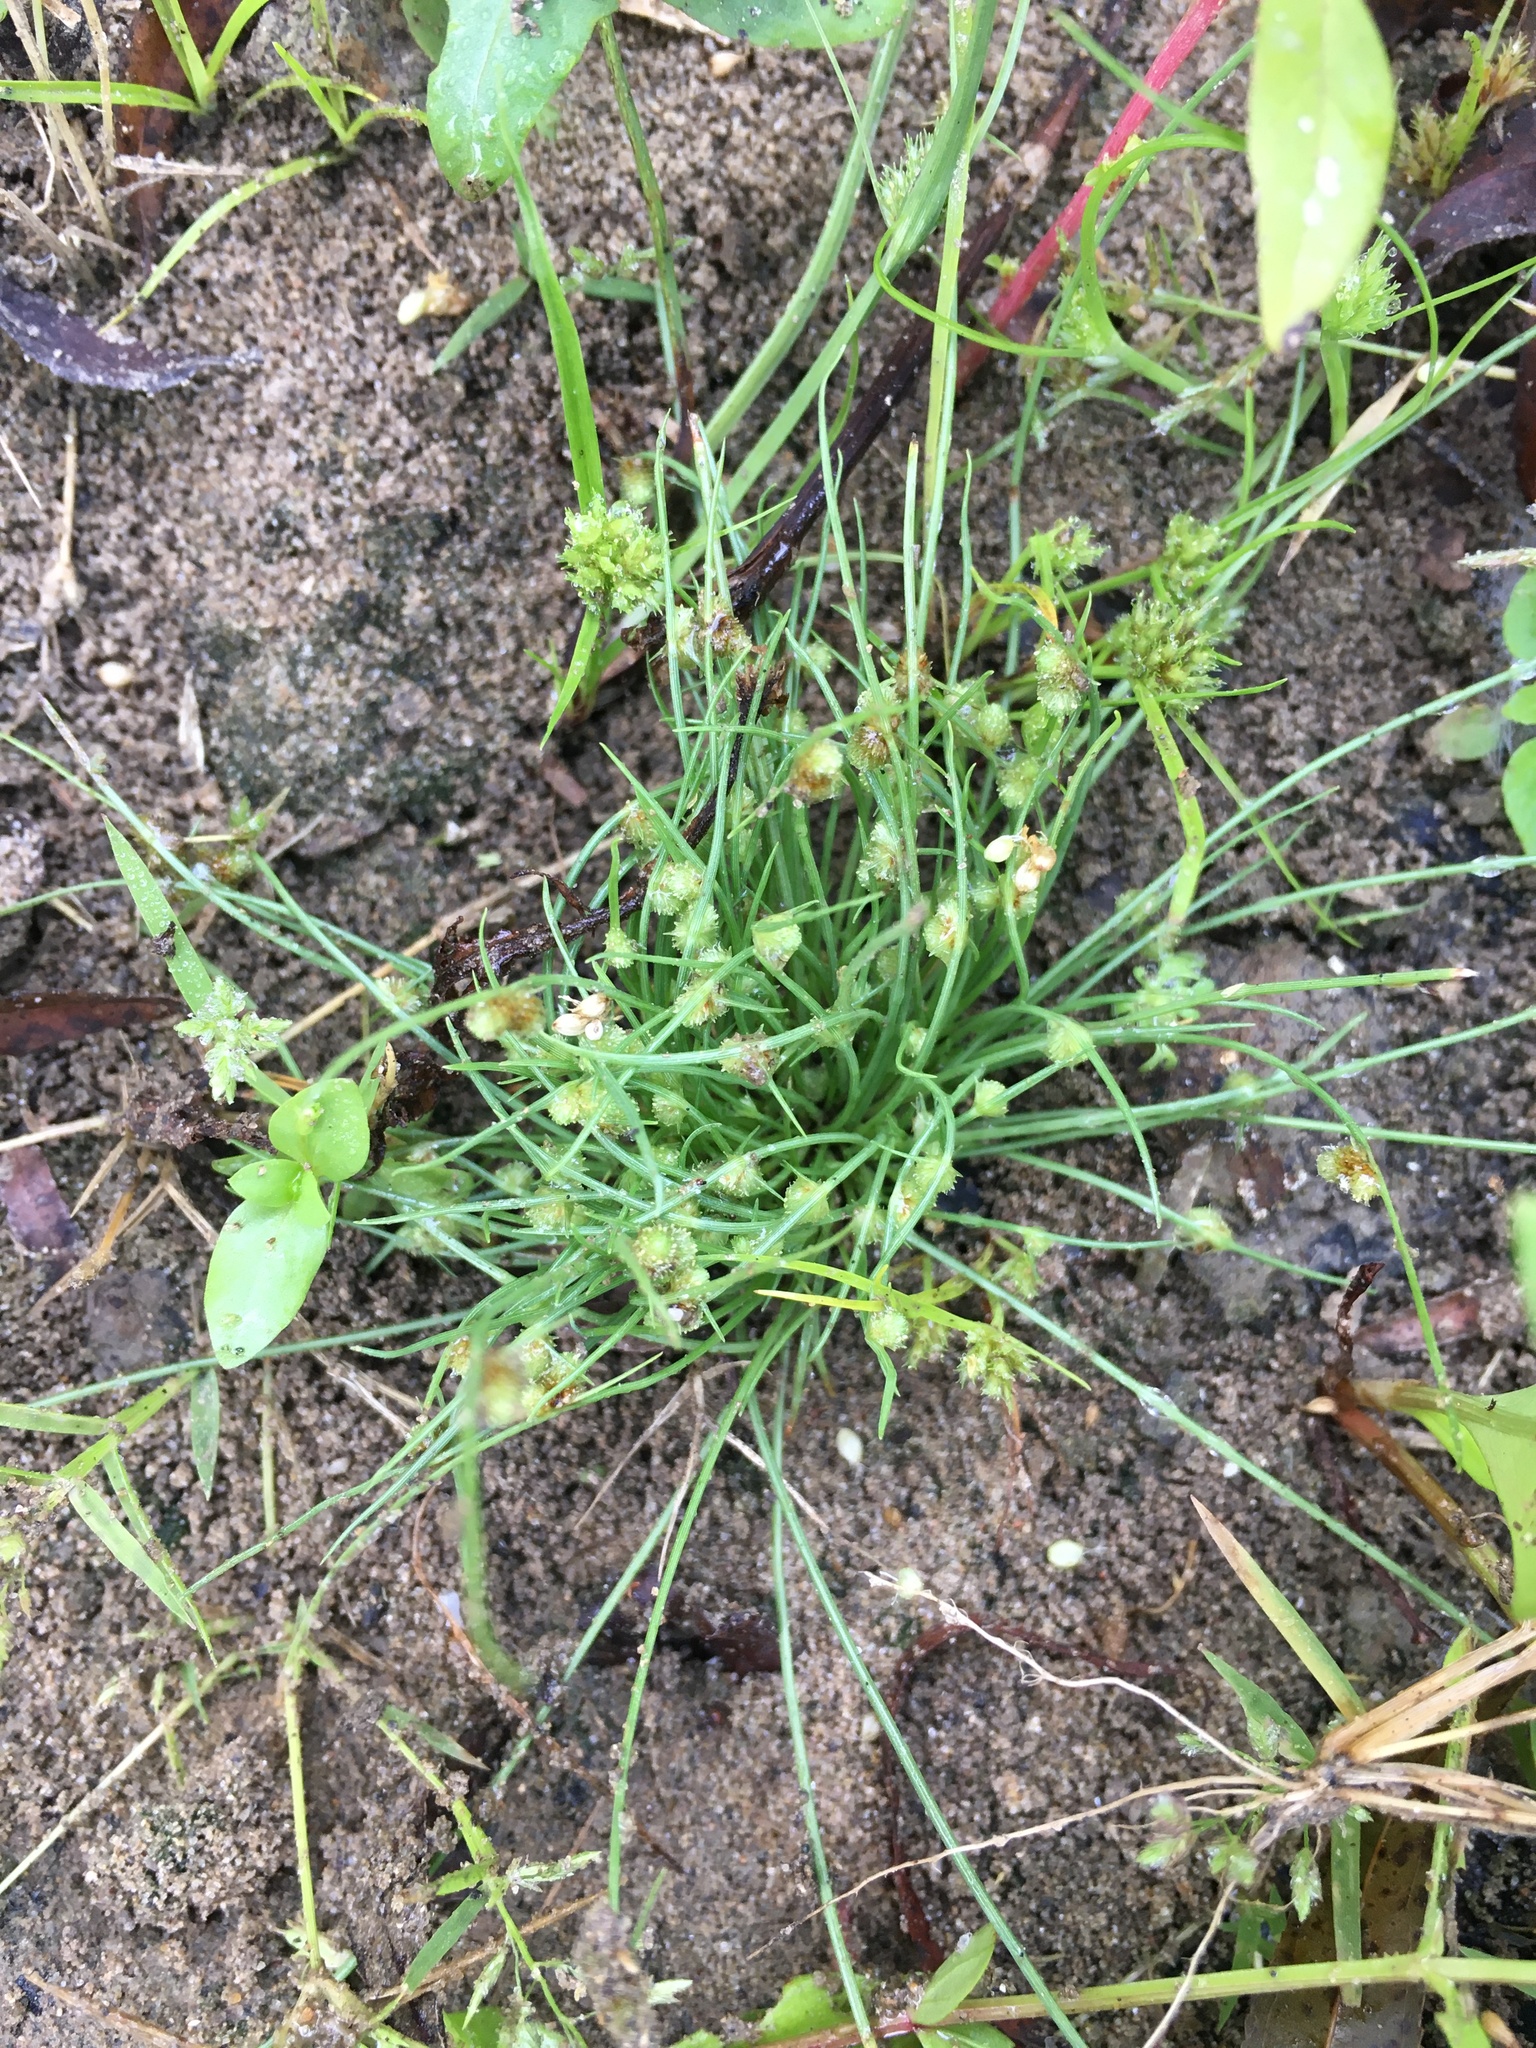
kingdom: Plantae
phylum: Tracheophyta
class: Liliopsida
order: Poales
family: Cyperaceae
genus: Cyperus
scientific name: Cyperus subsquarrosus
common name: Dwarf bulrush
